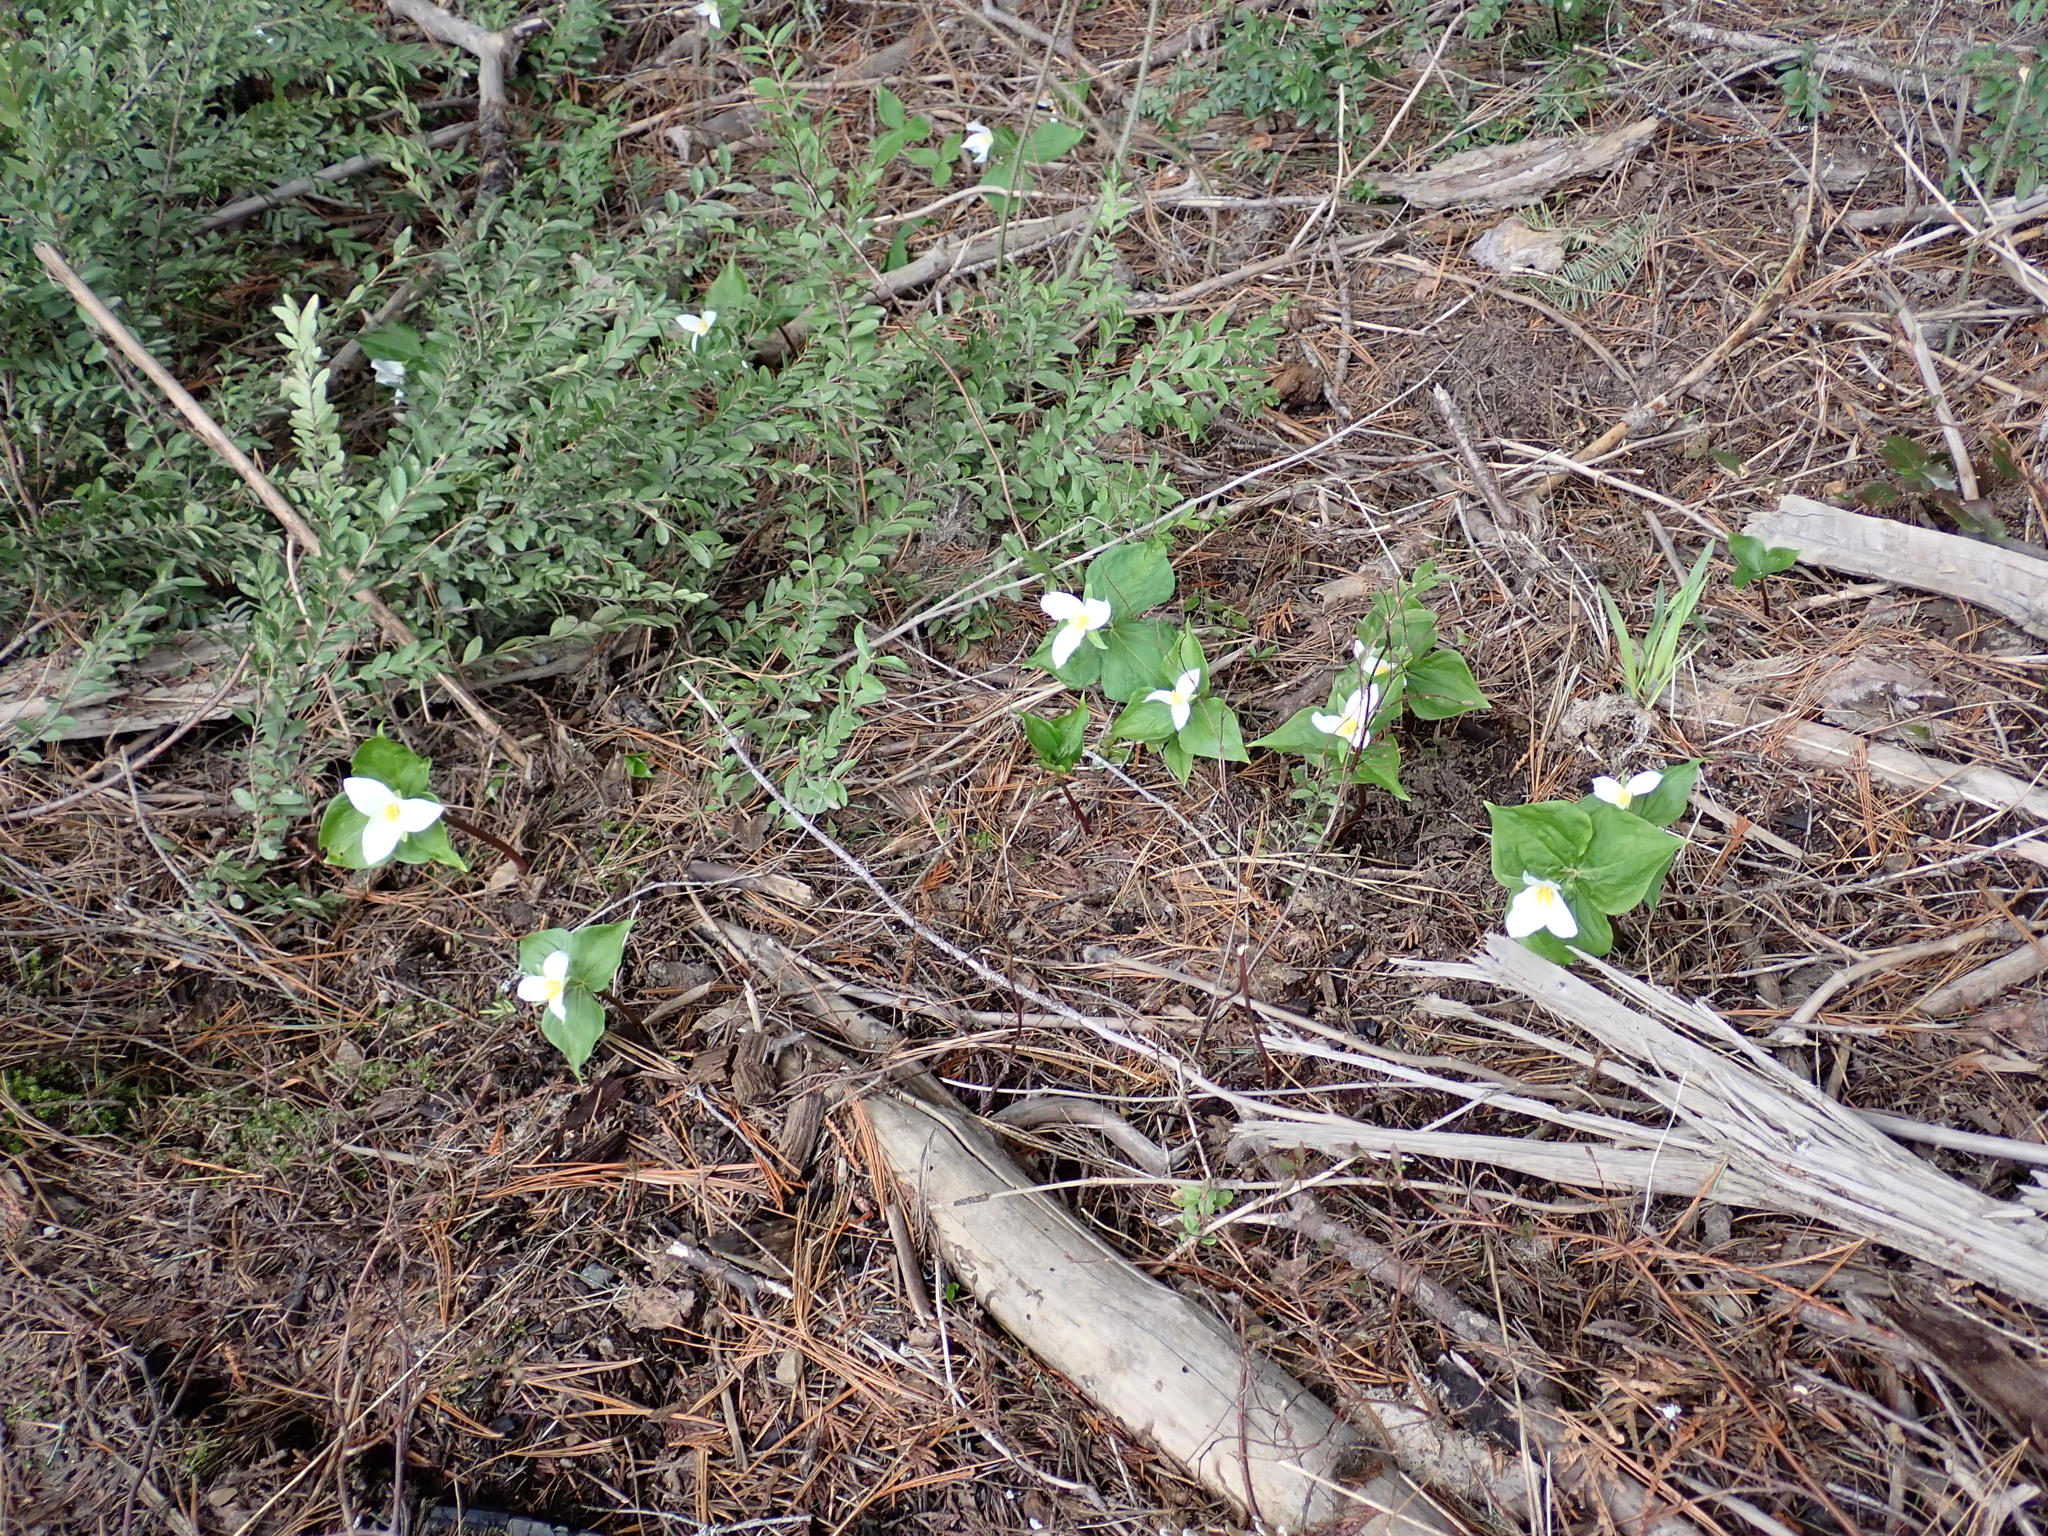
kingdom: Plantae
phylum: Tracheophyta
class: Liliopsida
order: Liliales
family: Melanthiaceae
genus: Trillium
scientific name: Trillium ovatum
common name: Pacific trillium
